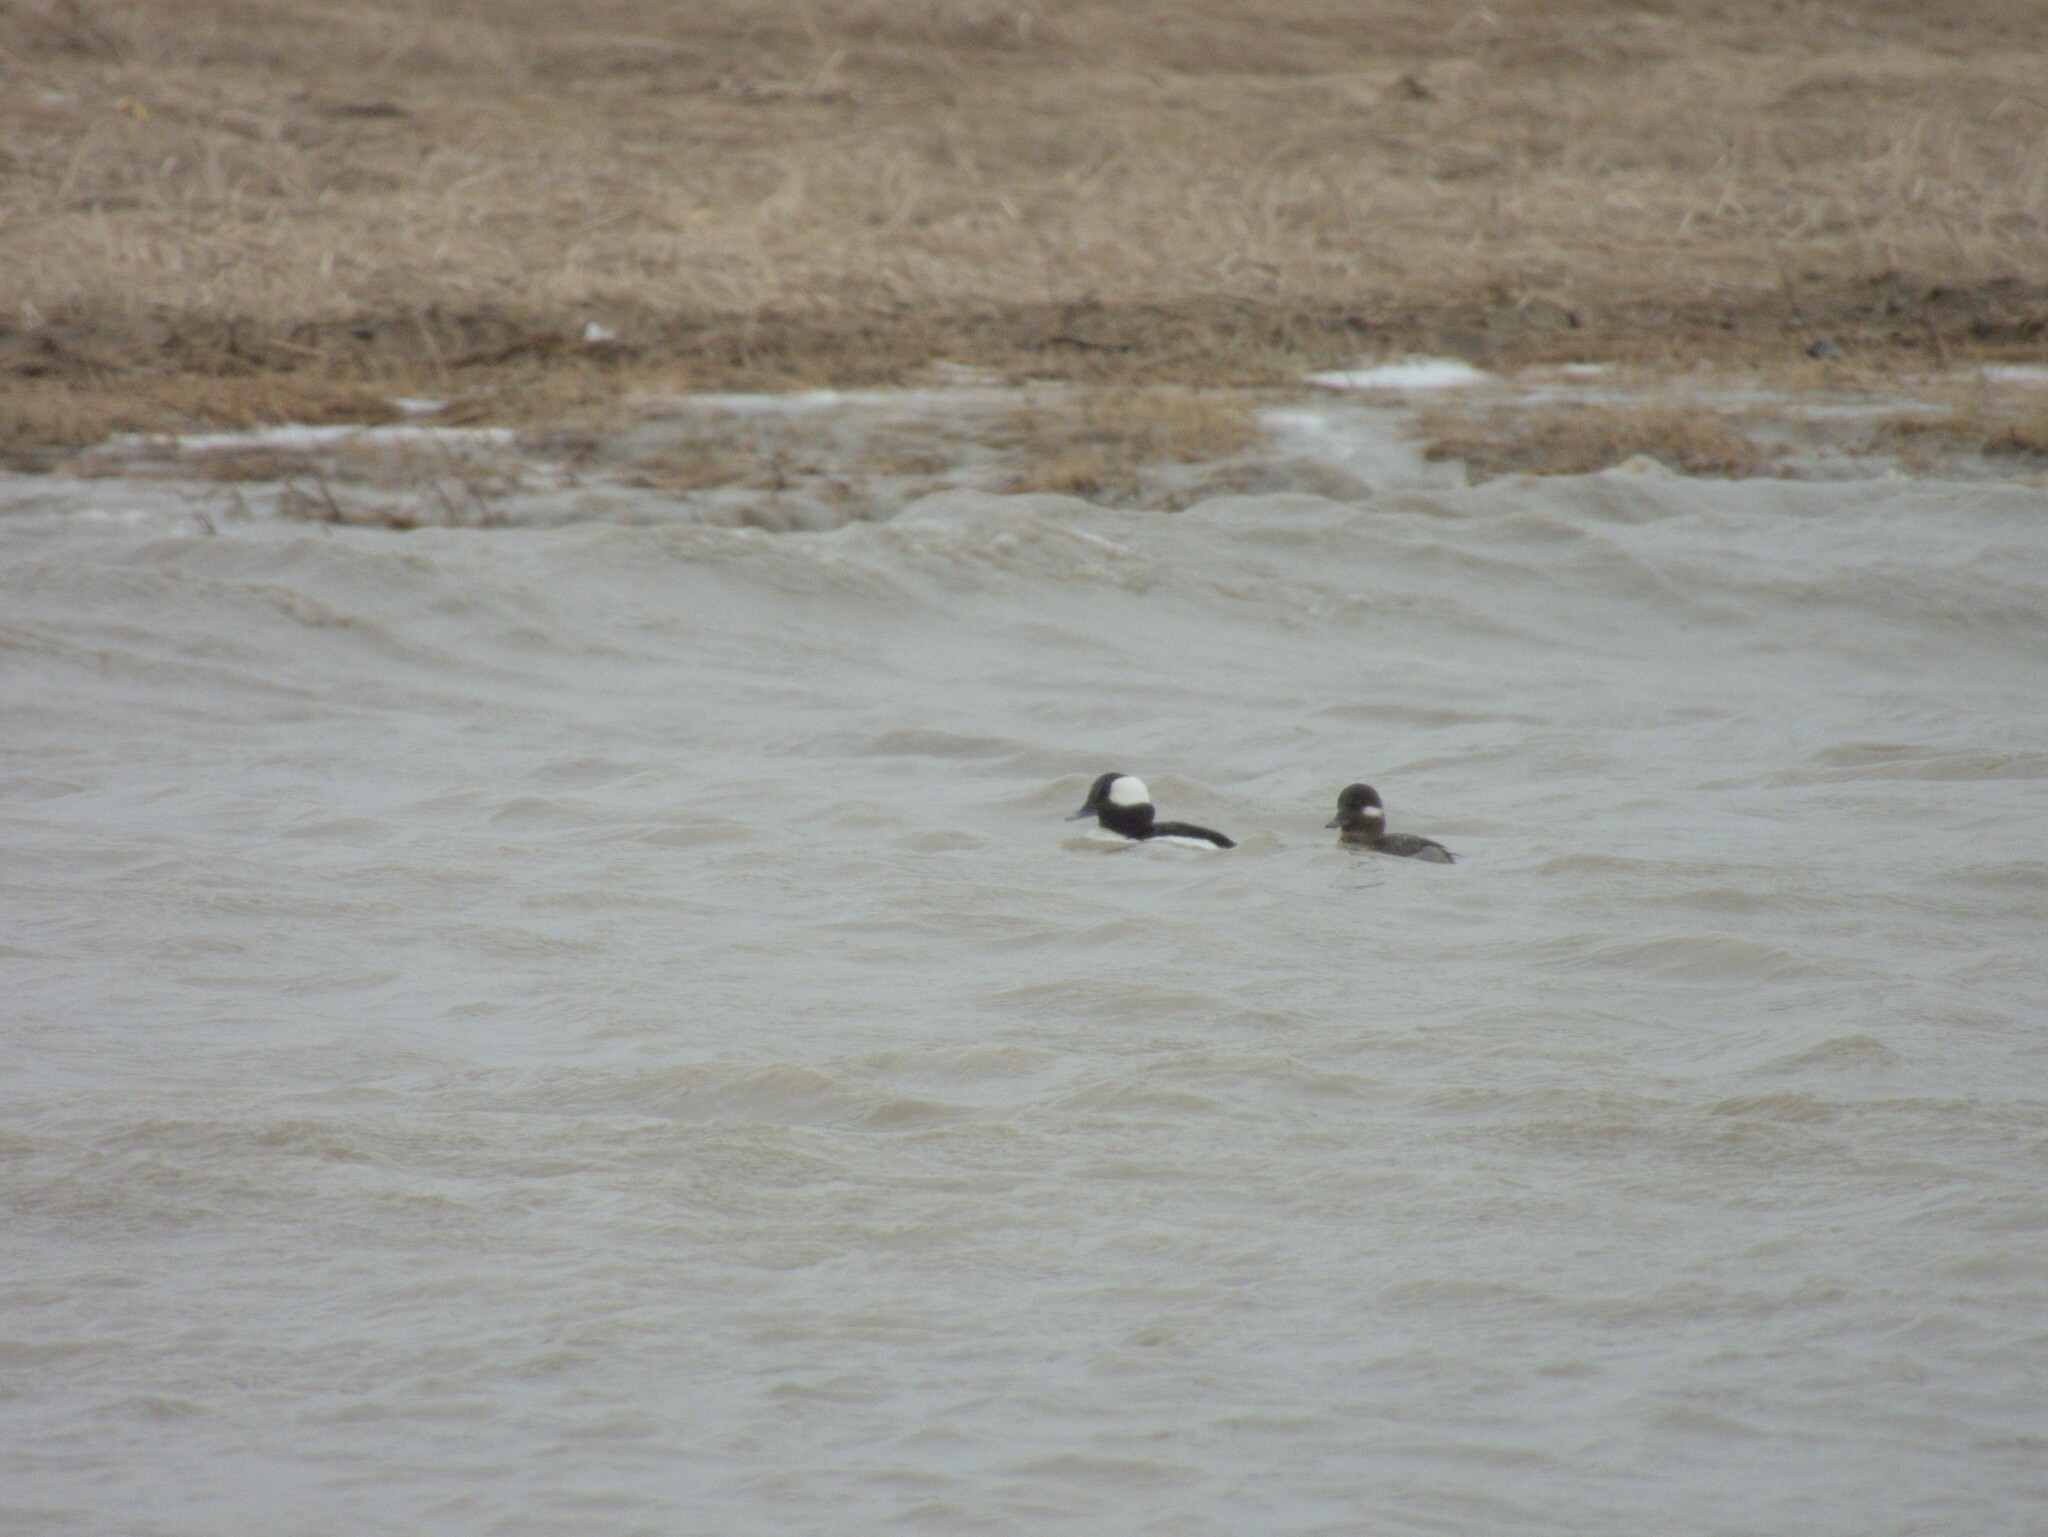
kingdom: Animalia
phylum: Chordata
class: Aves
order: Anseriformes
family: Anatidae
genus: Bucephala
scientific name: Bucephala albeola
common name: Bufflehead
